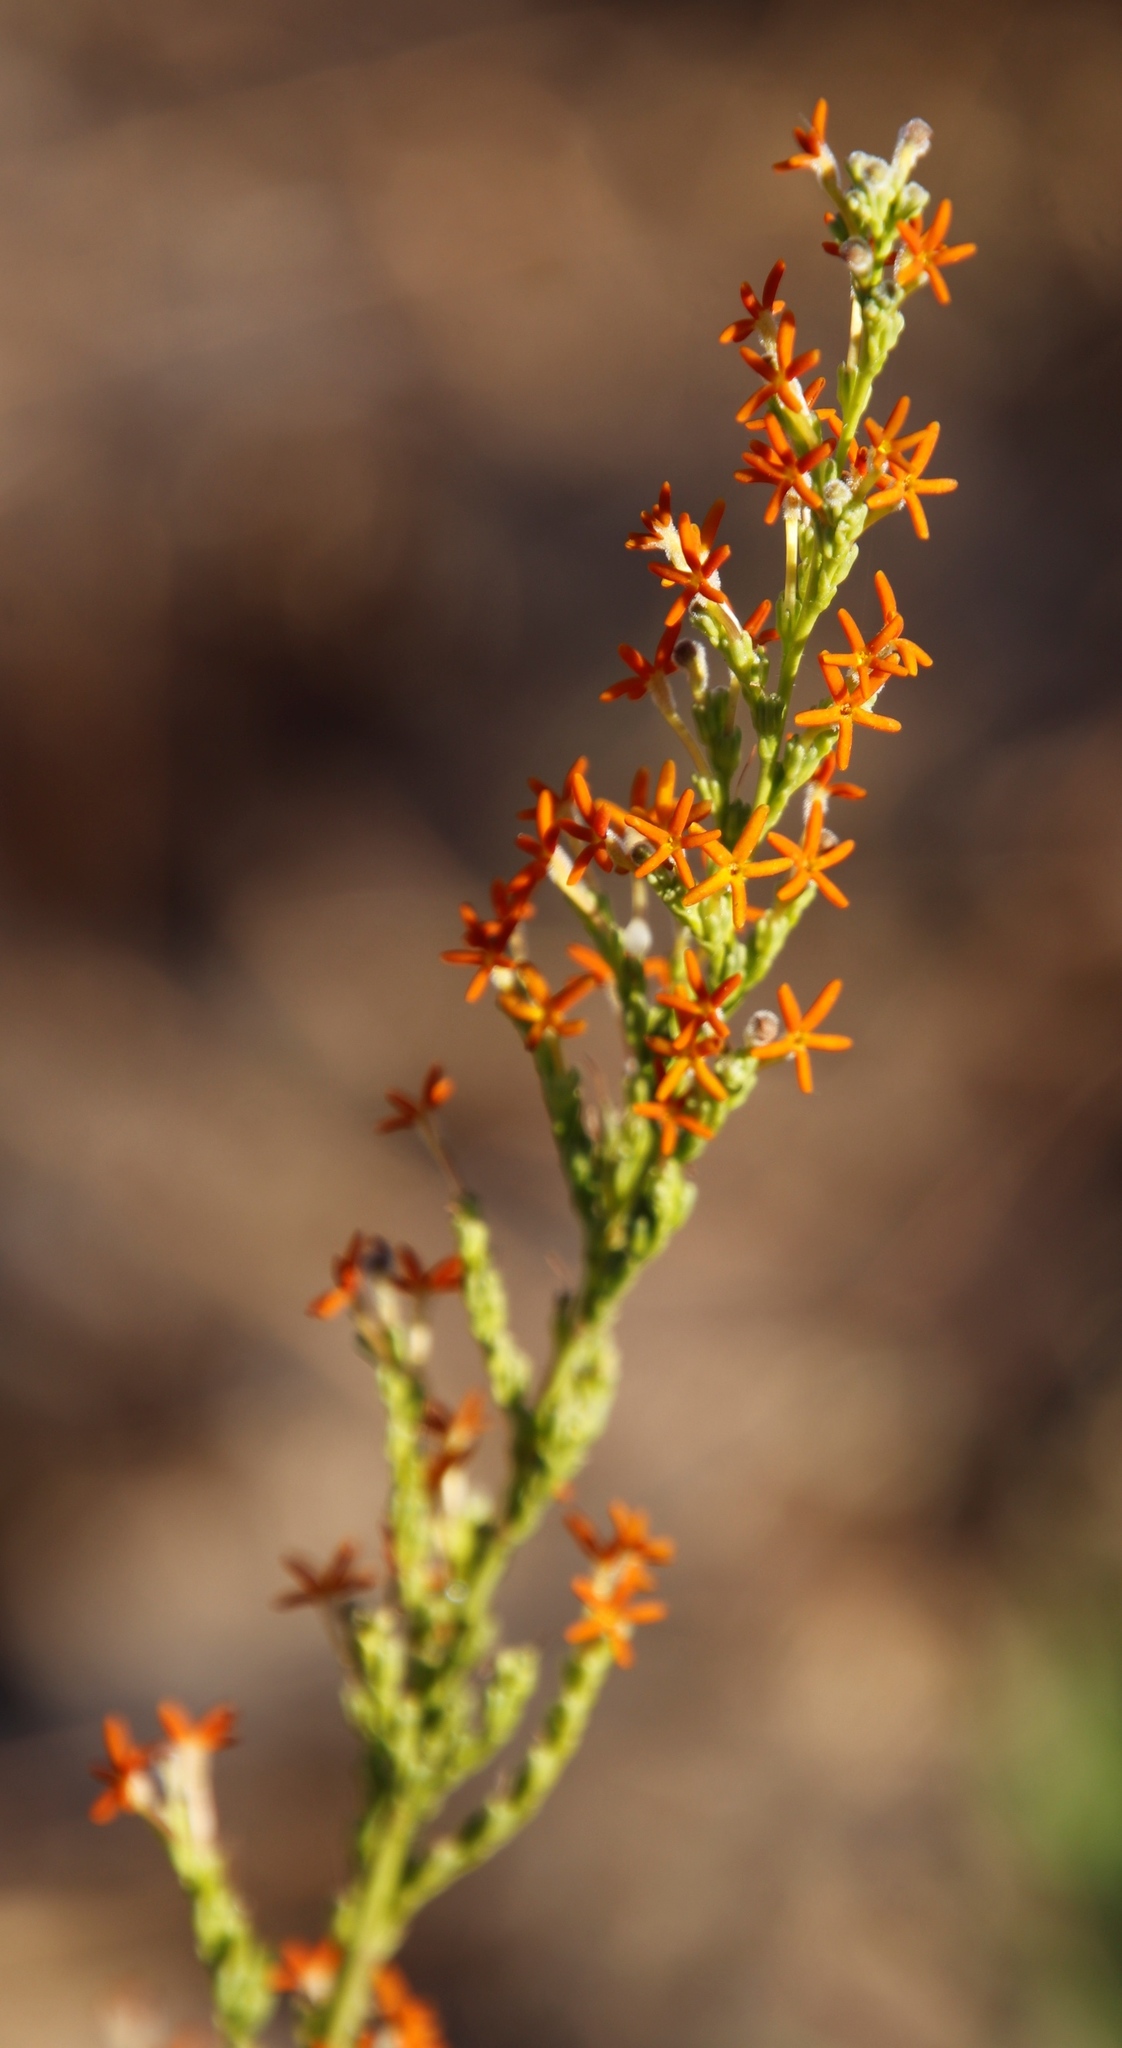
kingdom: Plantae
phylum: Tracheophyta
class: Magnoliopsida
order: Lamiales
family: Scrophulariaceae
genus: Manulea
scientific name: Manulea rubra
